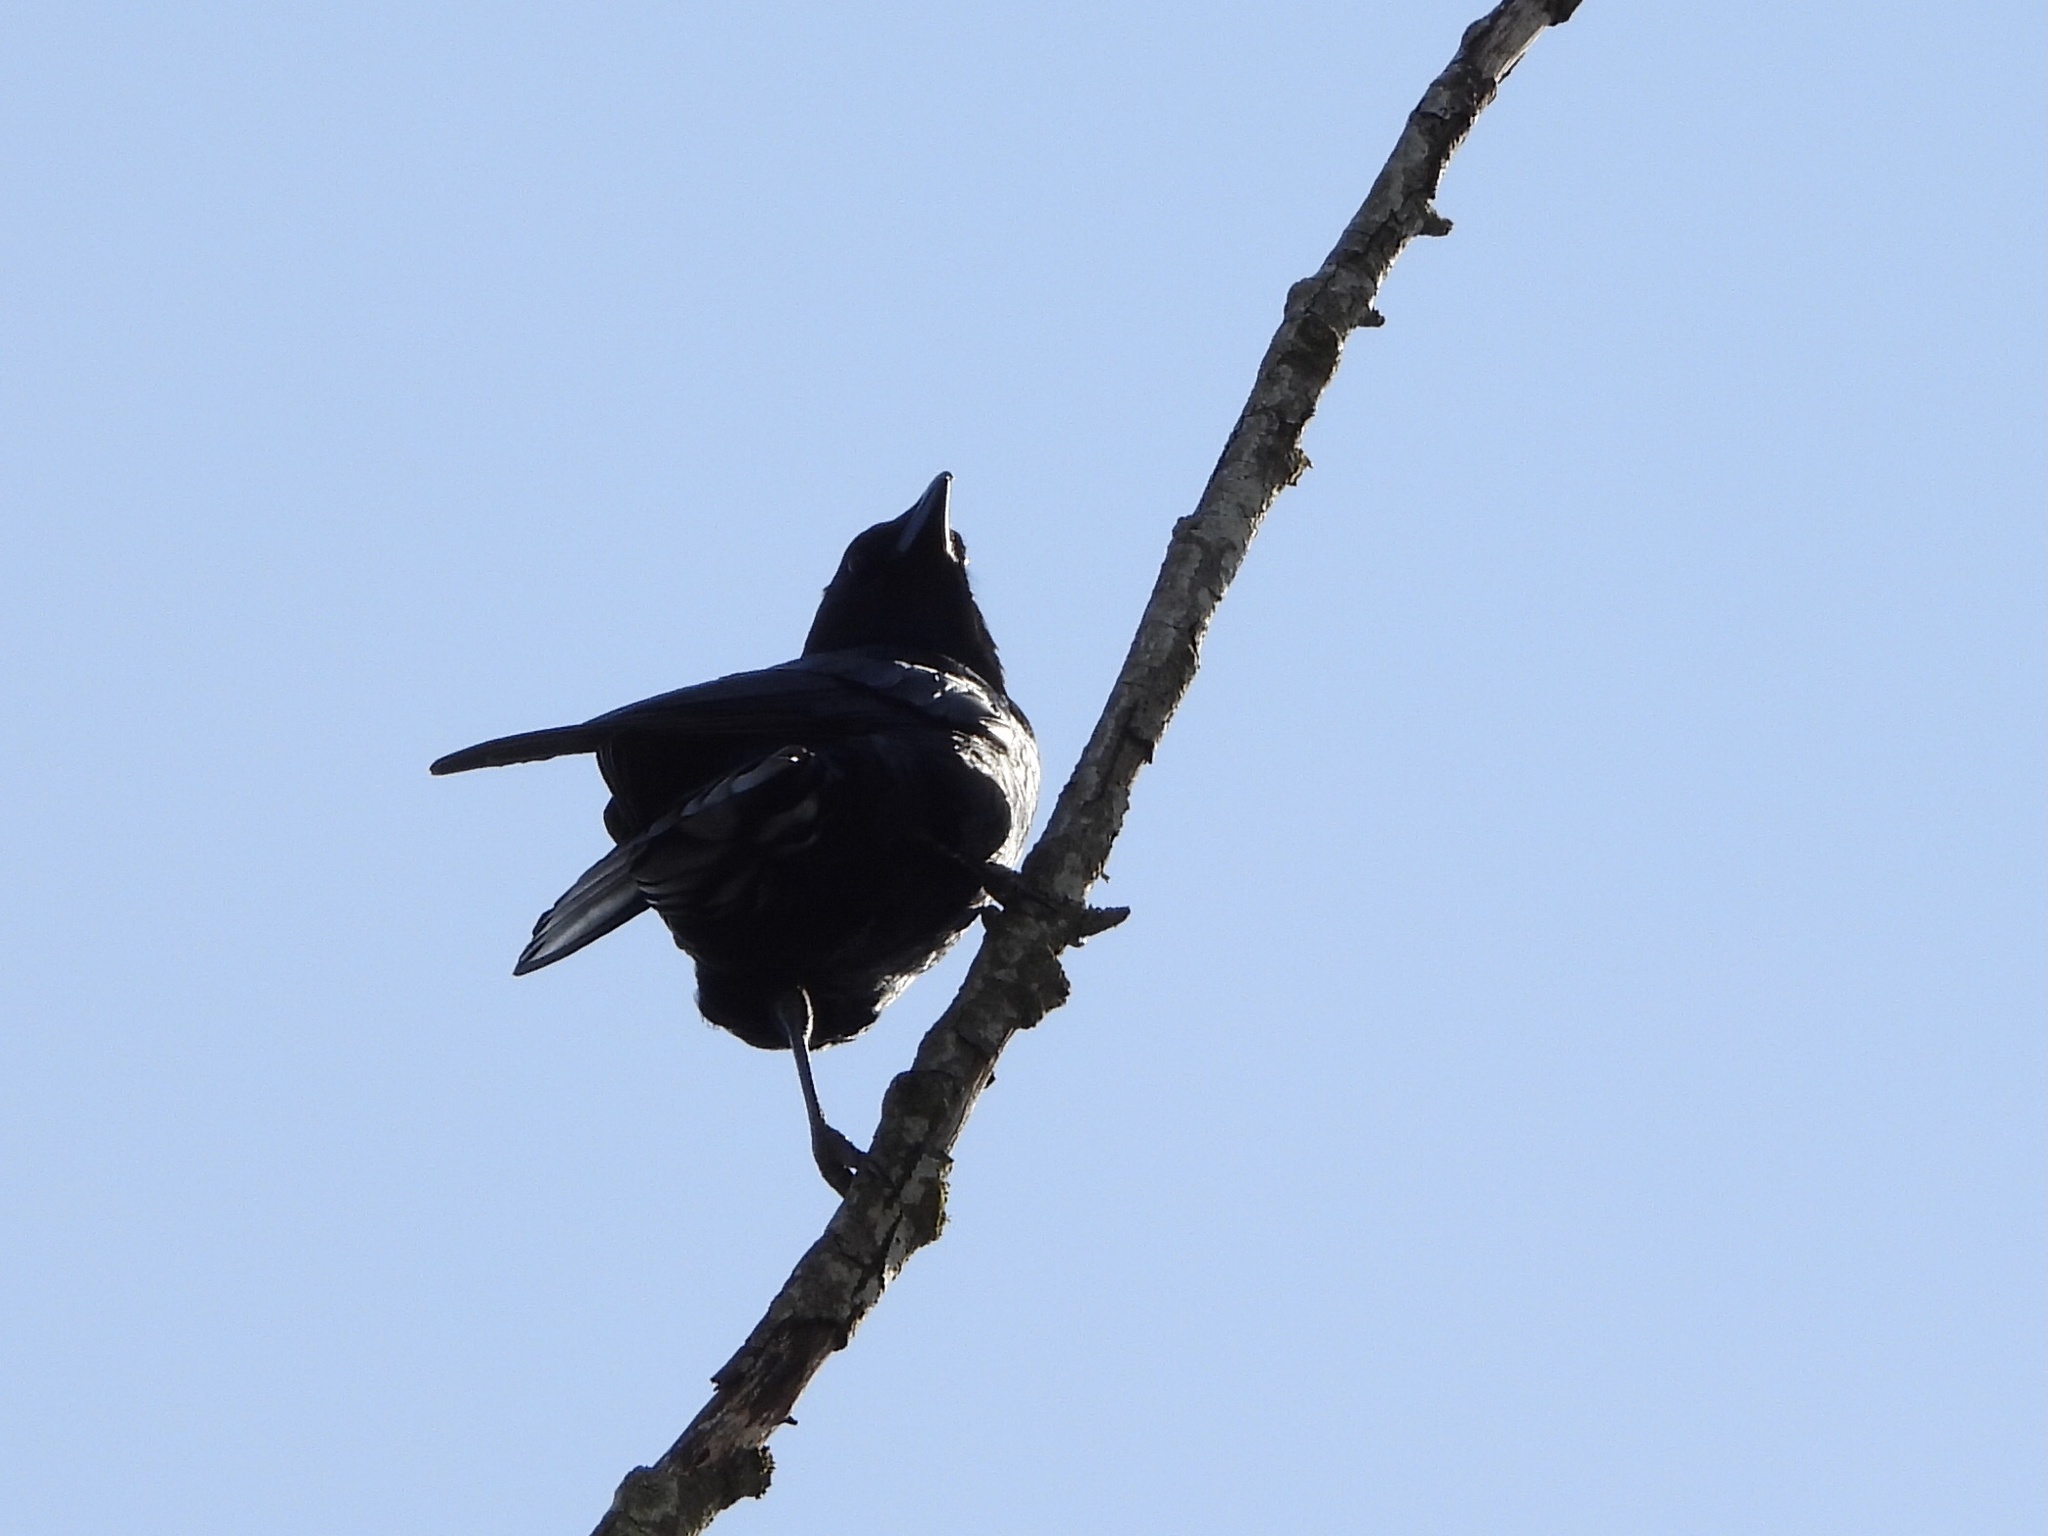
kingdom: Animalia
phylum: Chordata
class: Aves
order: Passeriformes
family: Corvidae
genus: Corvus
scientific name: Corvus brachyrhynchos
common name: American crow
